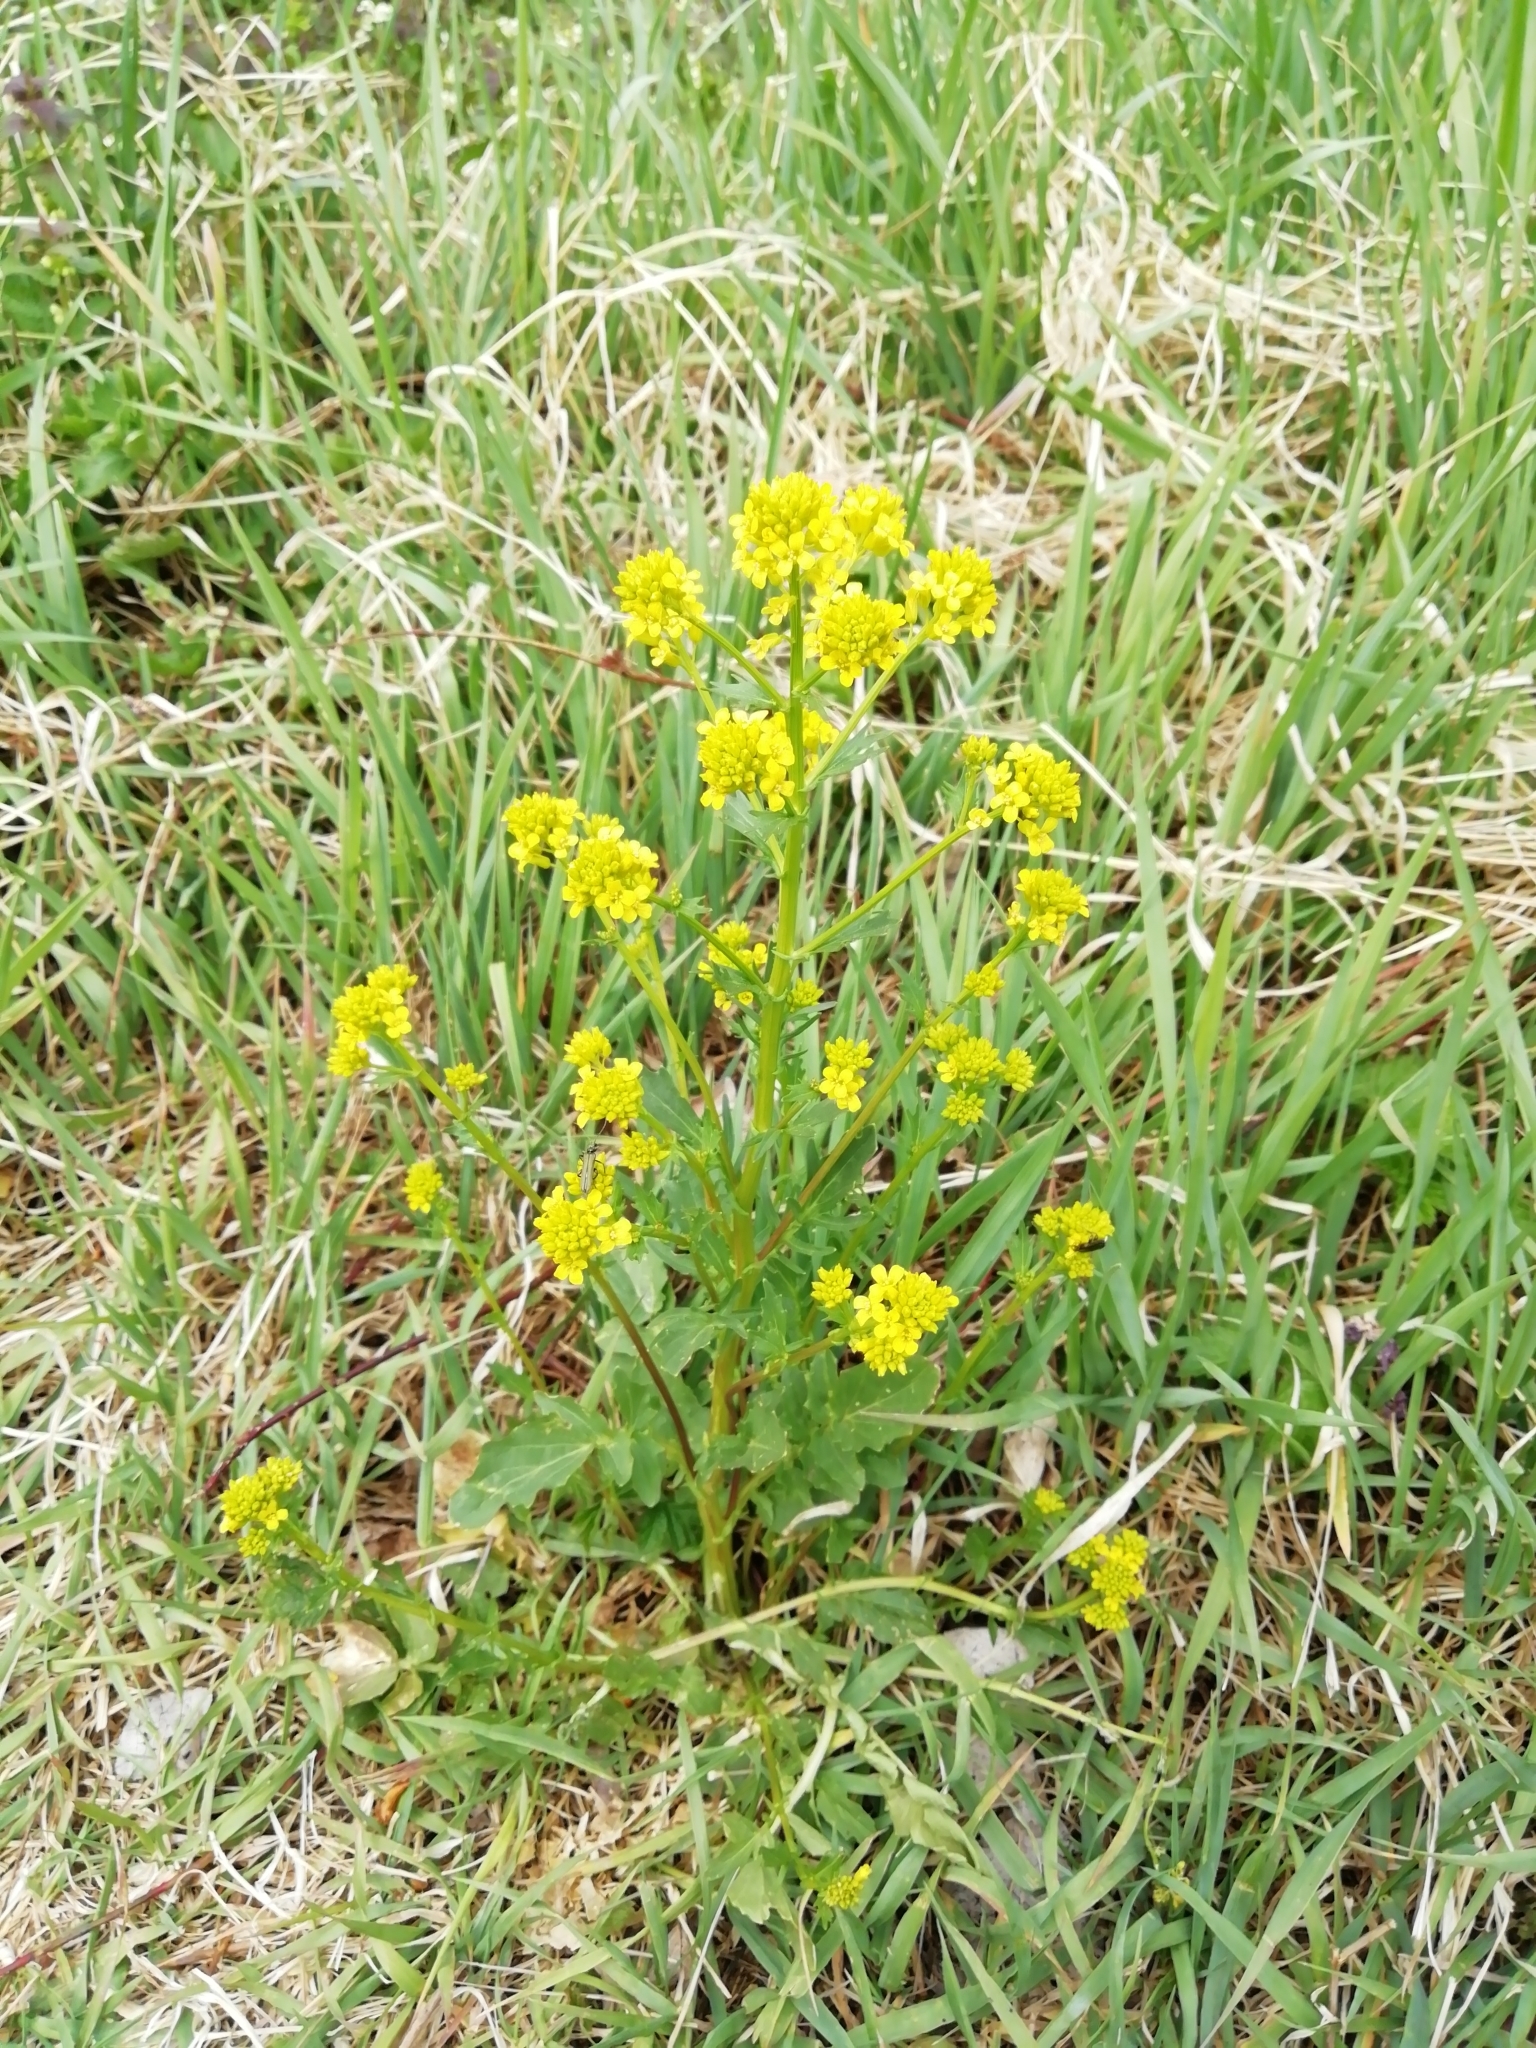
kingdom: Plantae
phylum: Tracheophyta
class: Magnoliopsida
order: Brassicales
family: Brassicaceae
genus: Barbarea
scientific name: Barbarea vulgaris
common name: Cressy-greens
